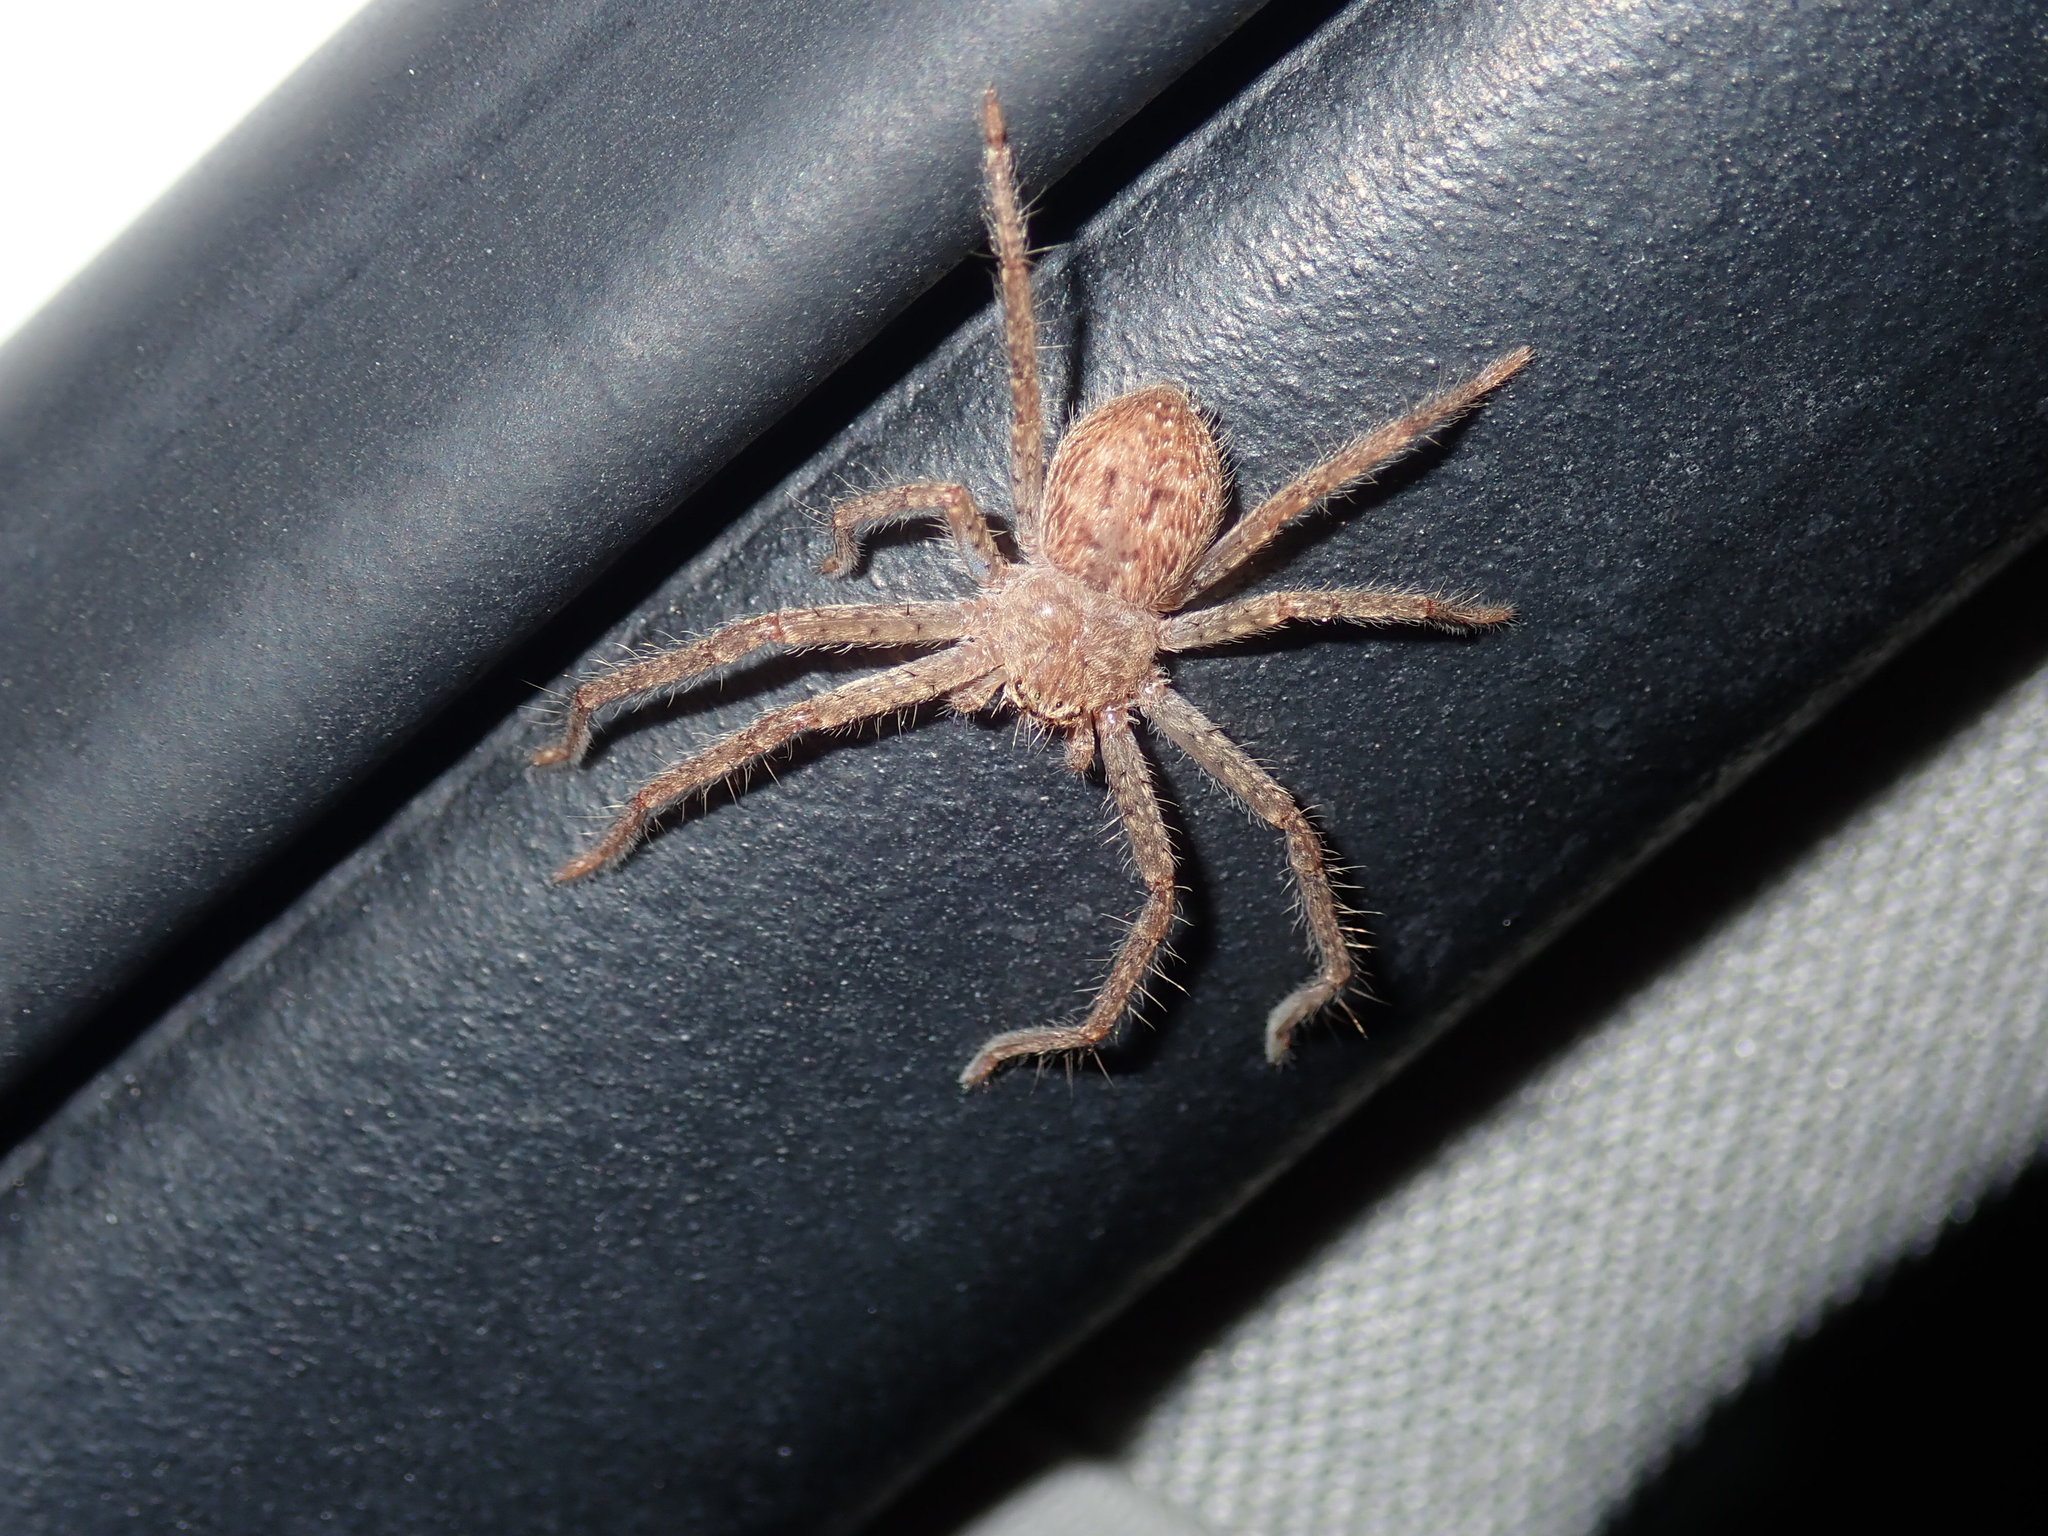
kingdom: Animalia
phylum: Arthropoda
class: Arachnida
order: Araneae
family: Sparassidae
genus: Isopeda
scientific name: Isopeda villosa
